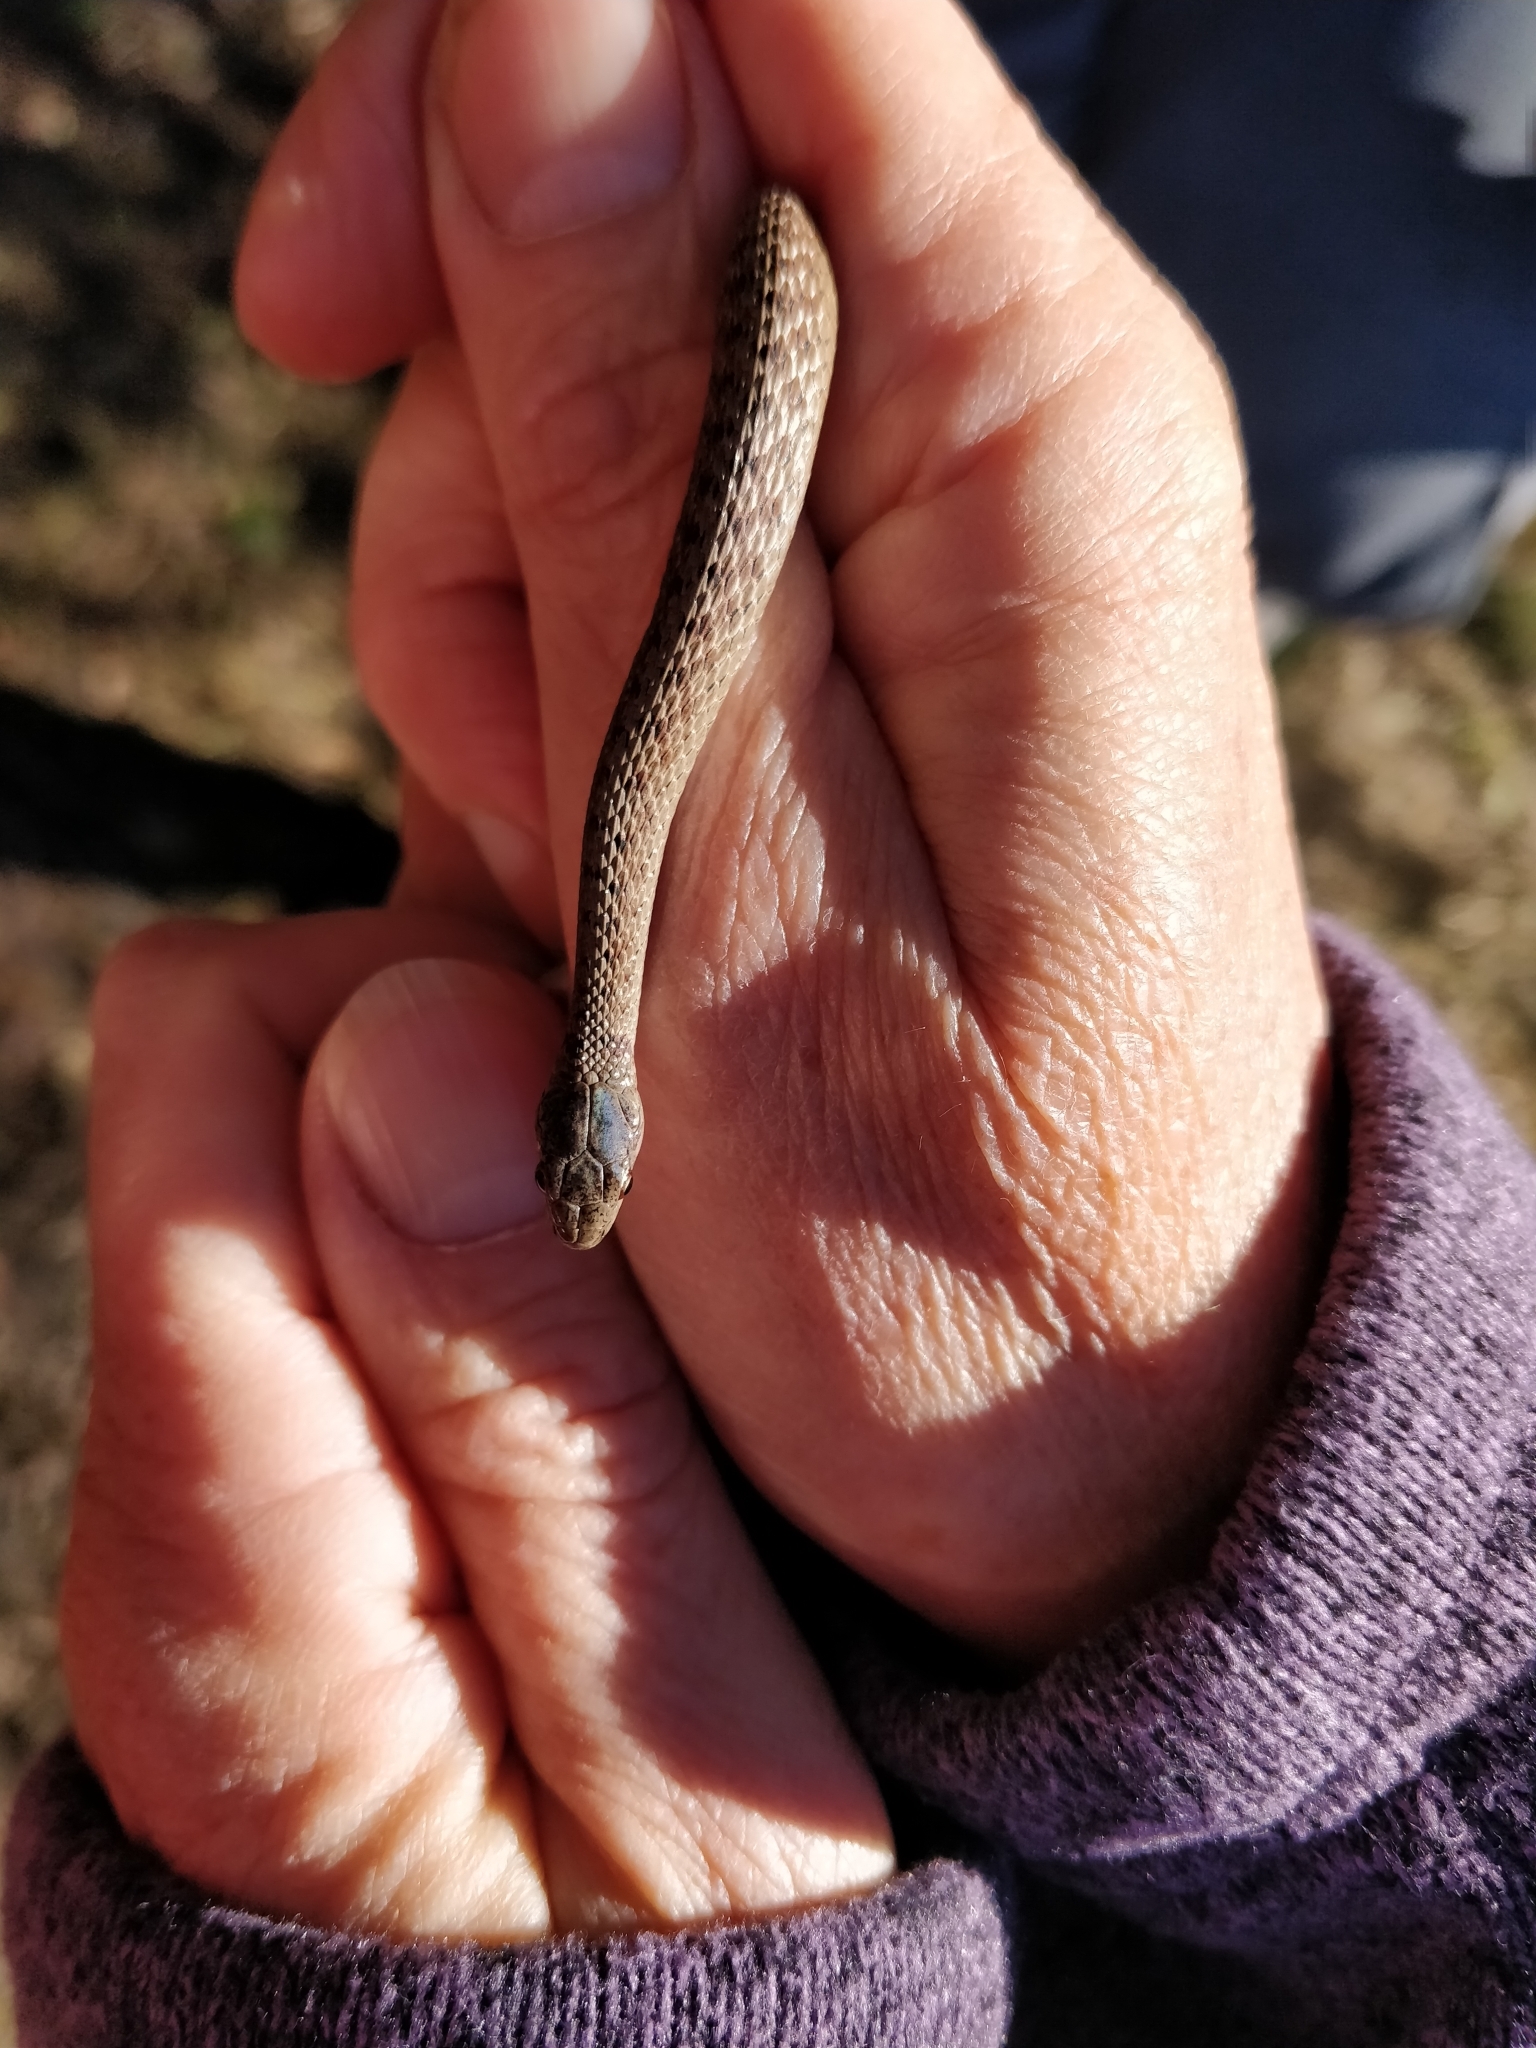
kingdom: Animalia
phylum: Chordata
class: Squamata
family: Colubridae
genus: Storeria
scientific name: Storeria dekayi
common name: (dekay’s) brown snake
